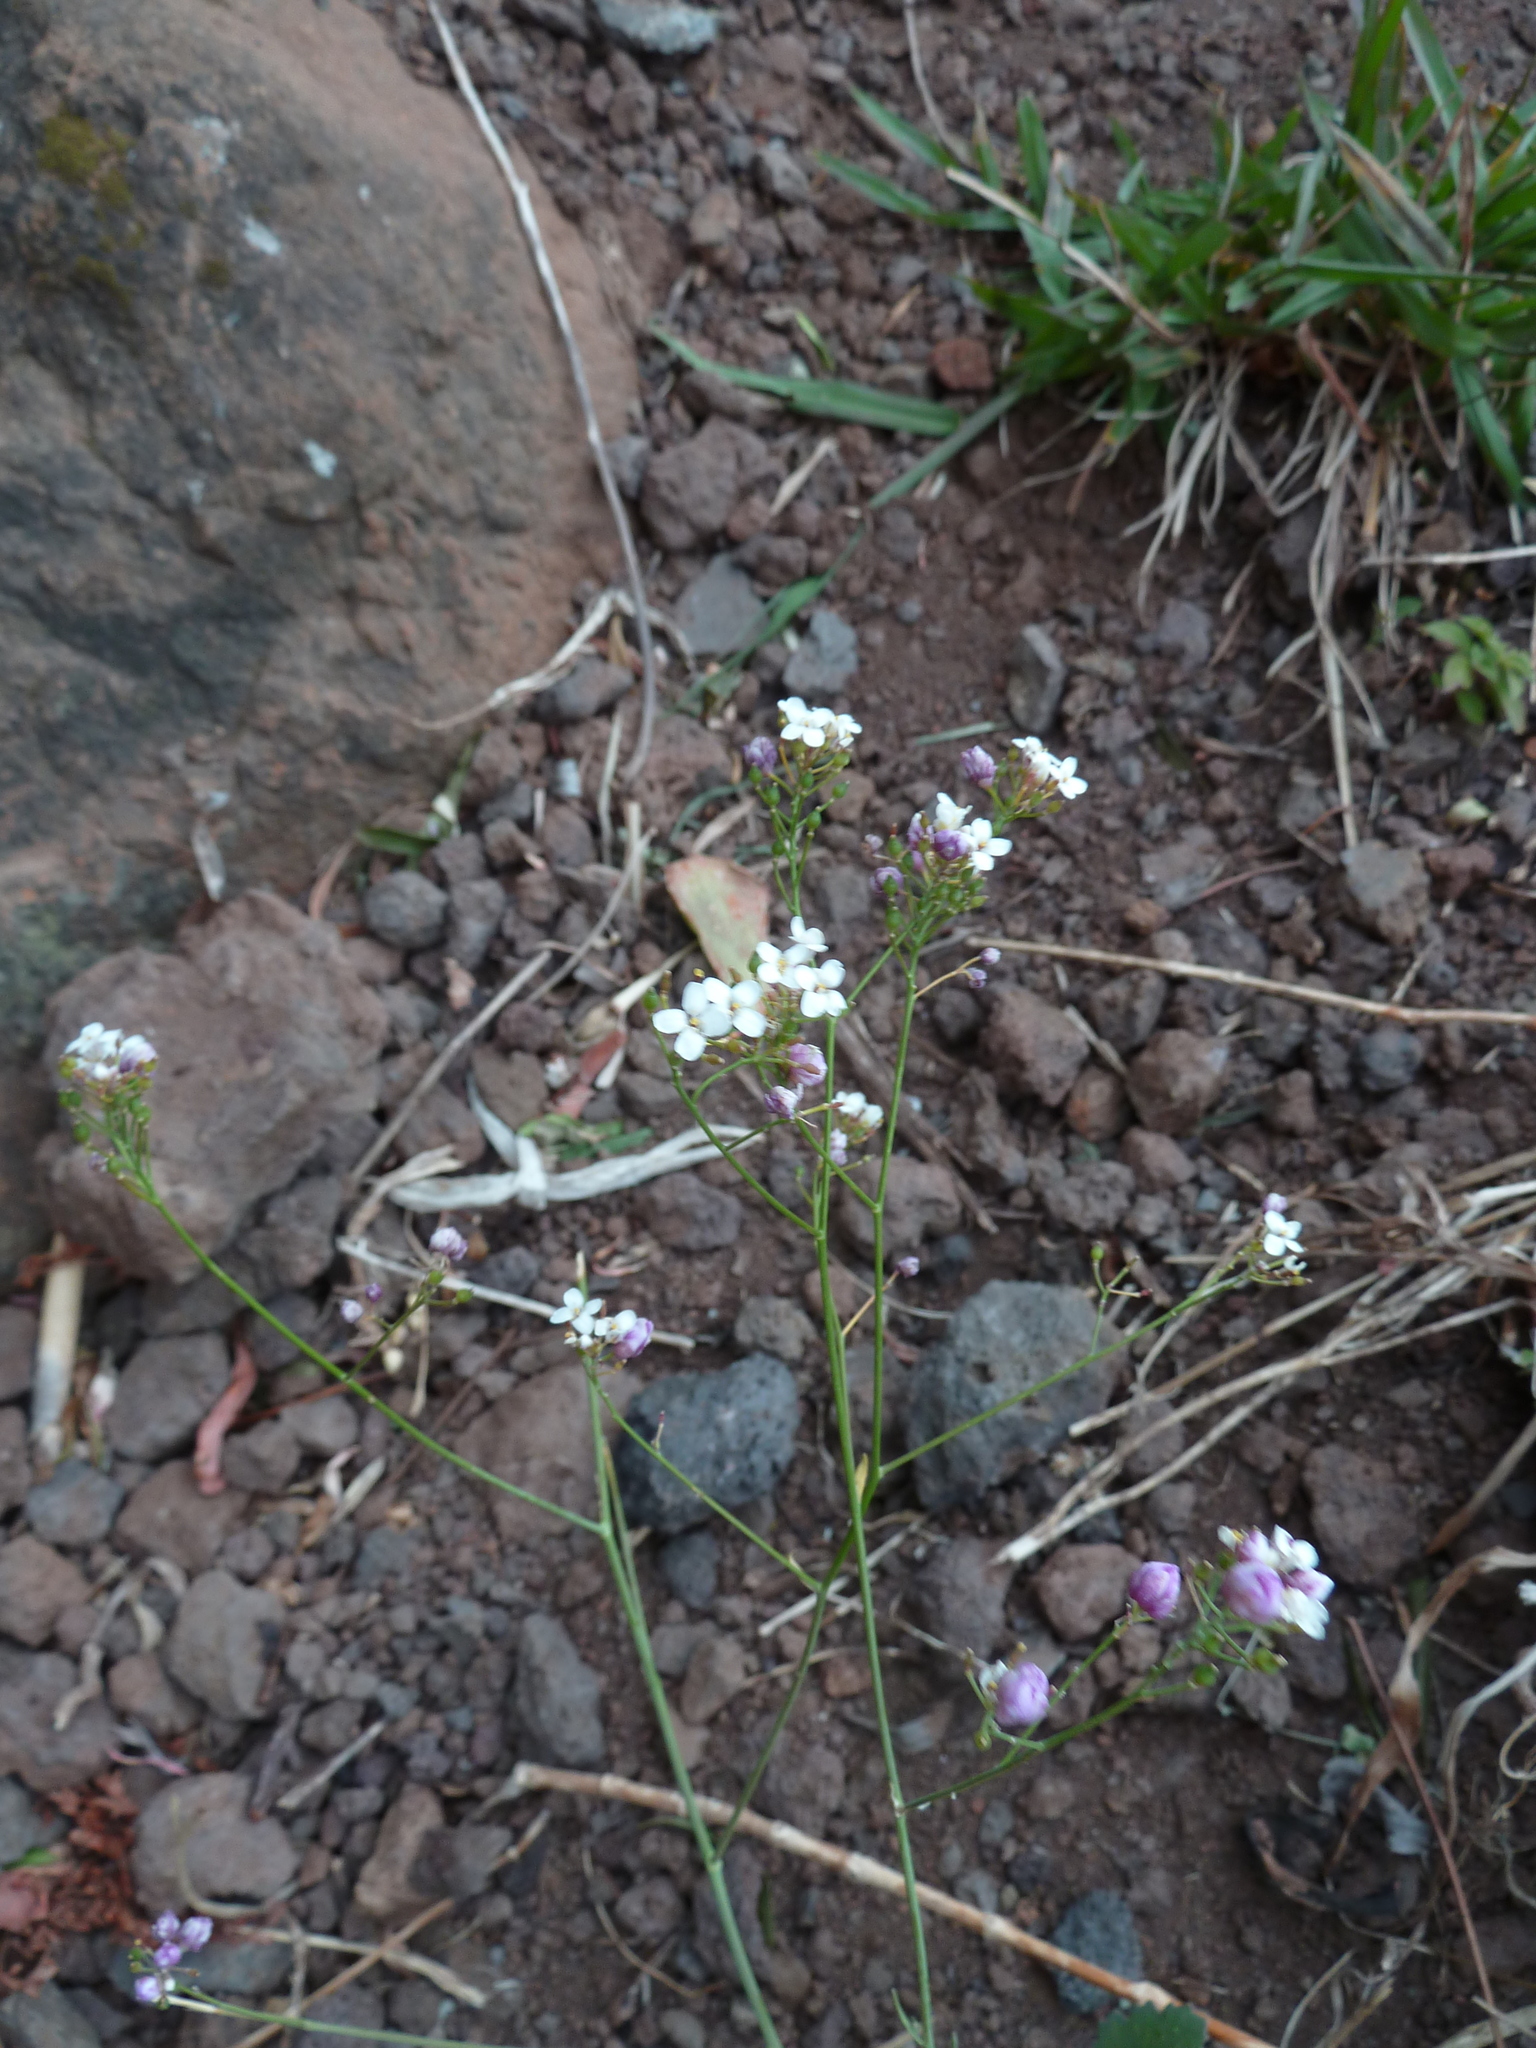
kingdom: Plantae
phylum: Tracheophyta
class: Magnoliopsida
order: Brassicales
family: Brassicaceae
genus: Crambe
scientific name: Crambe fruticosa
